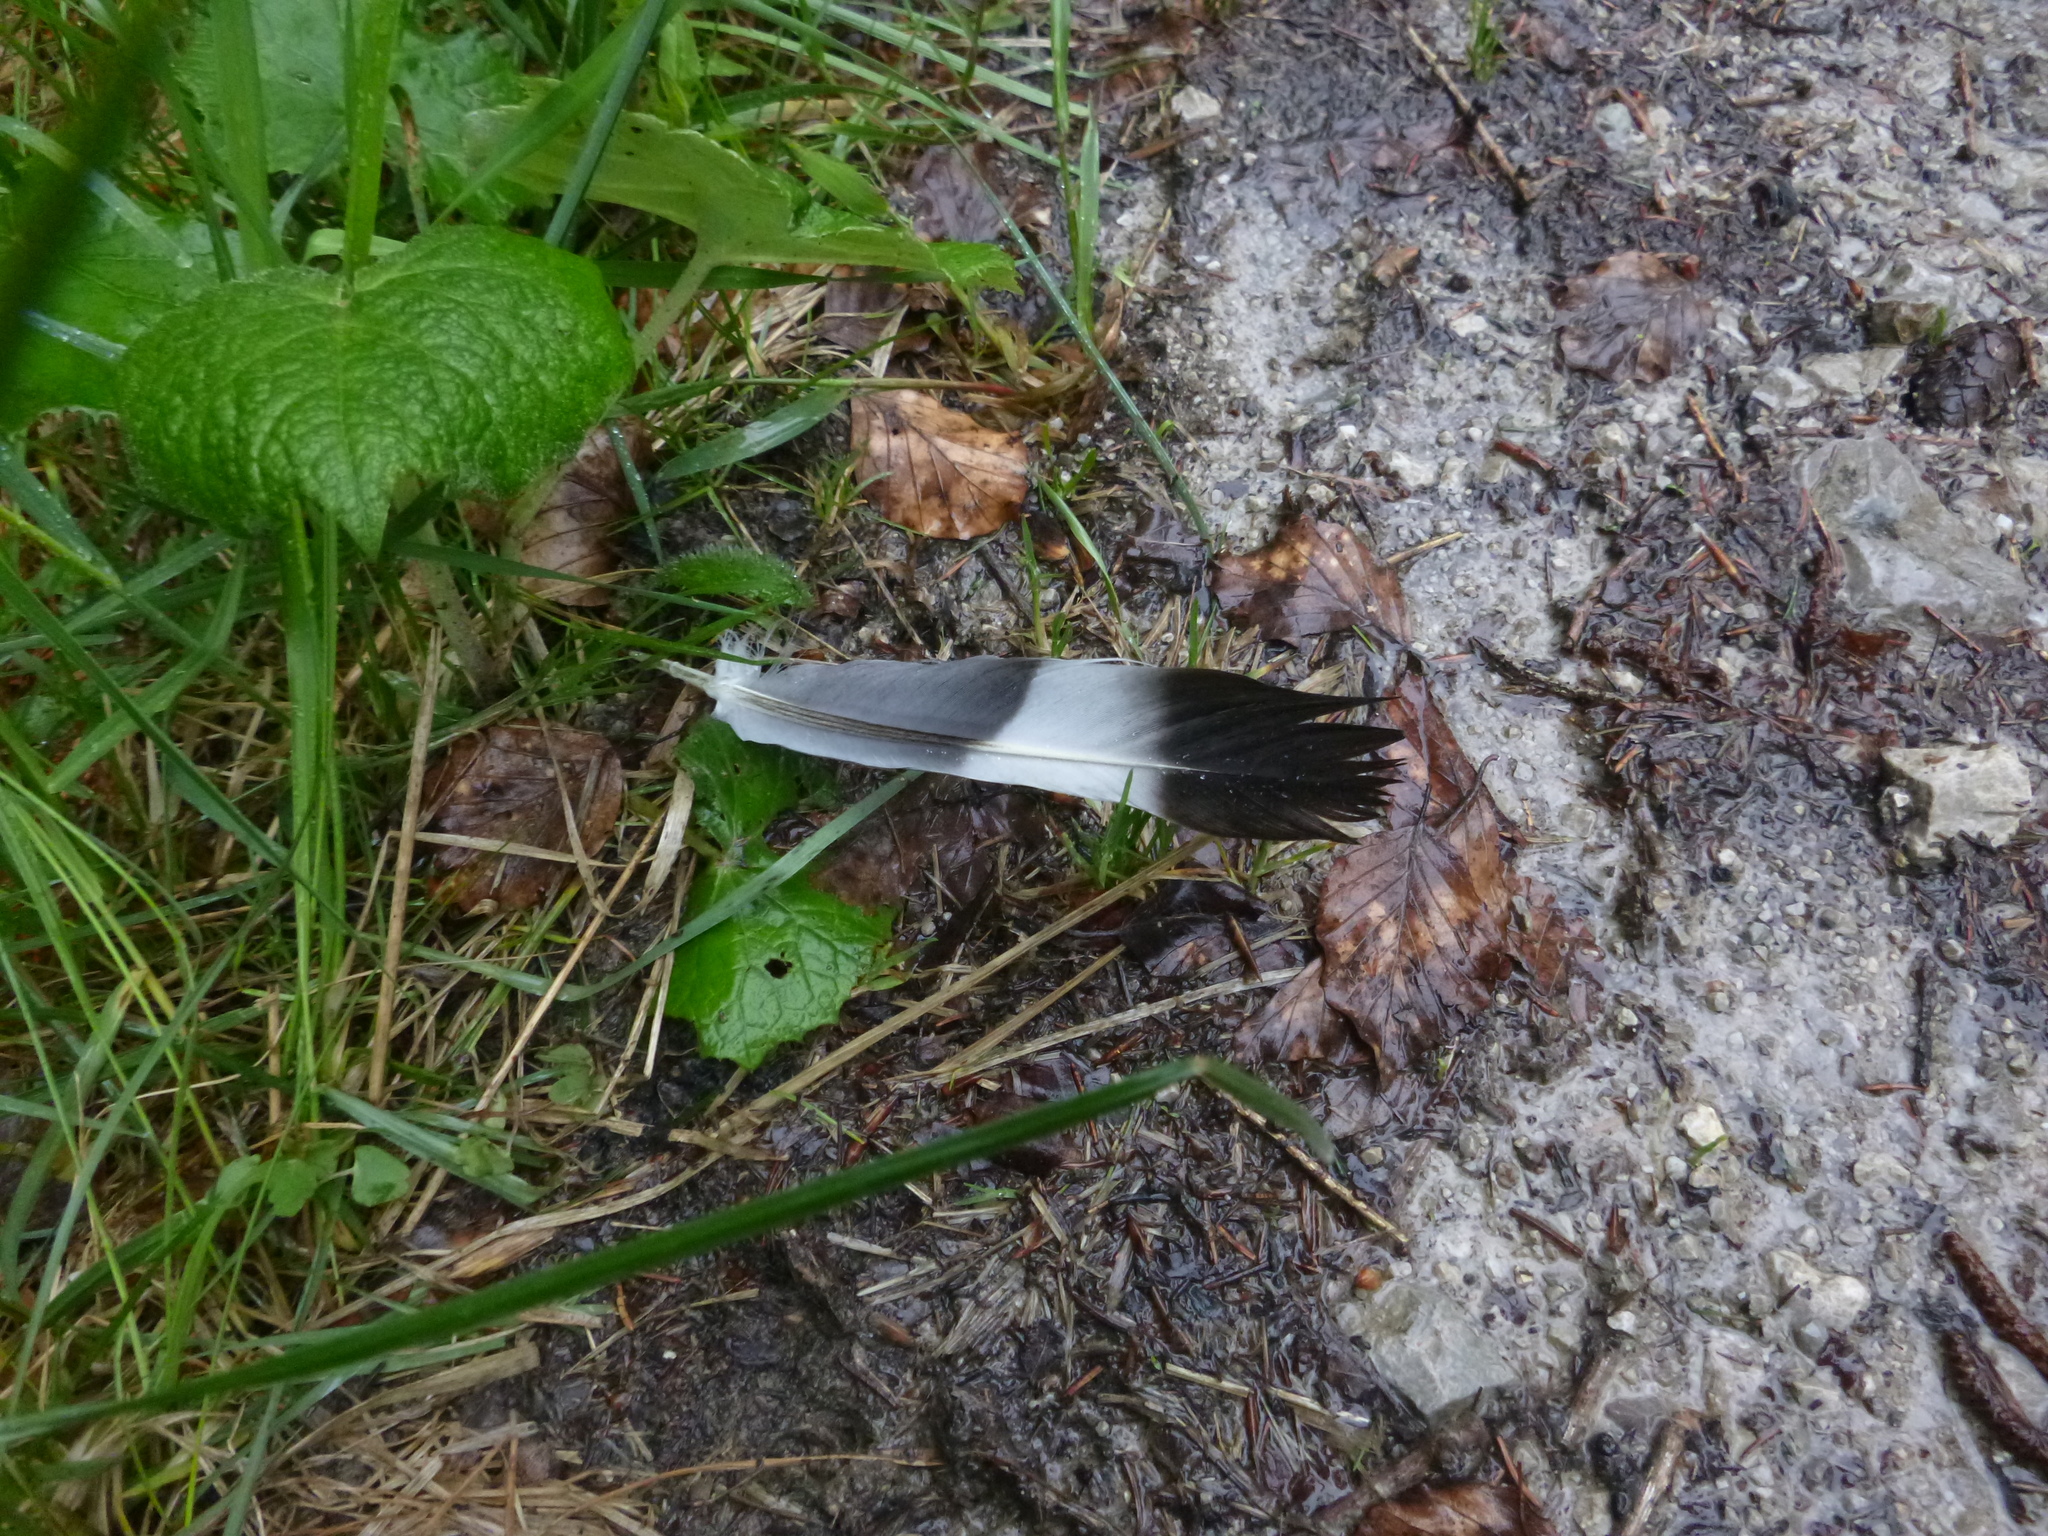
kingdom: Animalia
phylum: Chordata
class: Aves
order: Columbiformes
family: Columbidae
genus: Columba
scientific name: Columba palumbus
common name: Common wood pigeon
